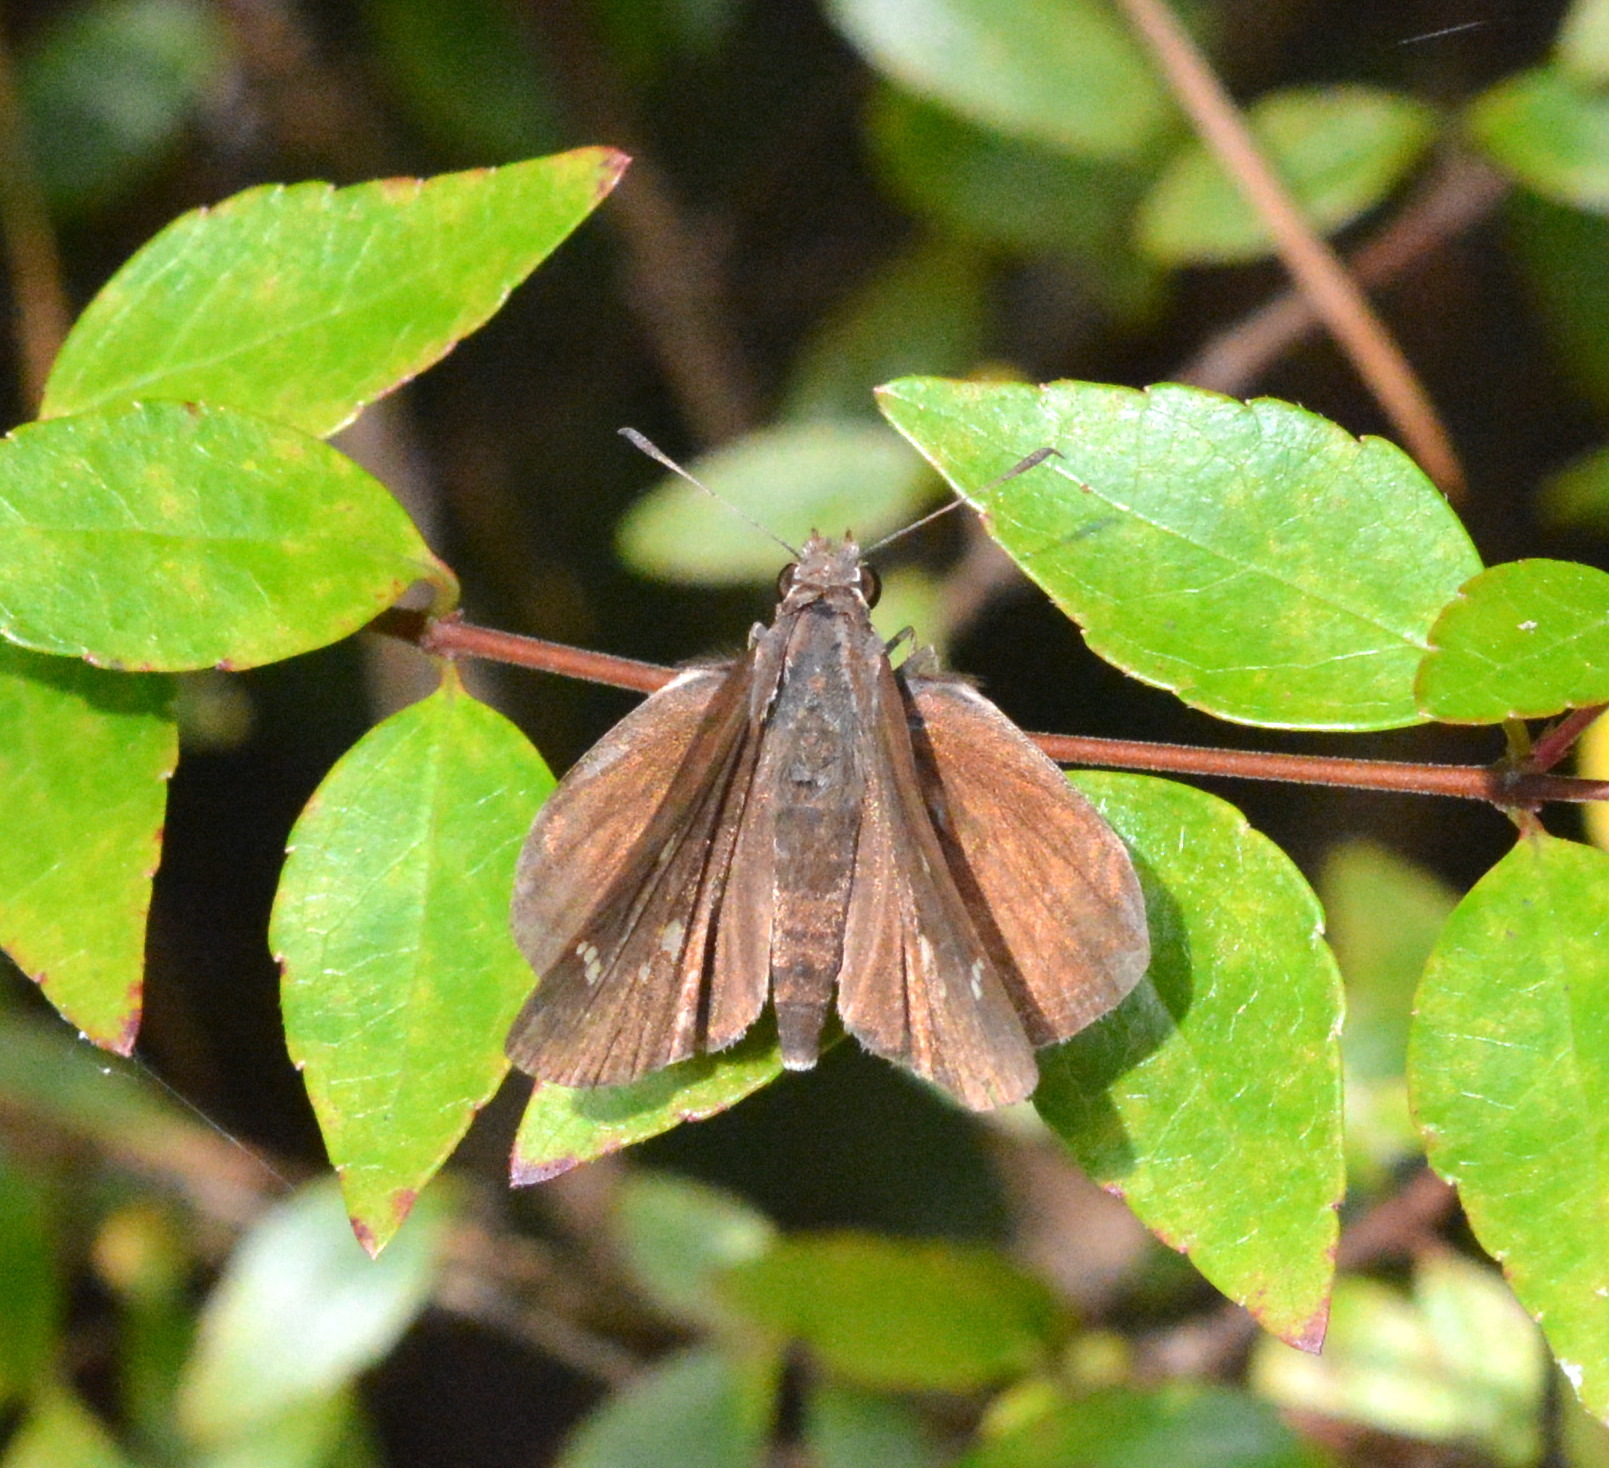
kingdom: Animalia
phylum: Arthropoda
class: Insecta
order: Lepidoptera
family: Hesperiidae
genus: Lerema
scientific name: Lerema accius
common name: Clouded skipper
